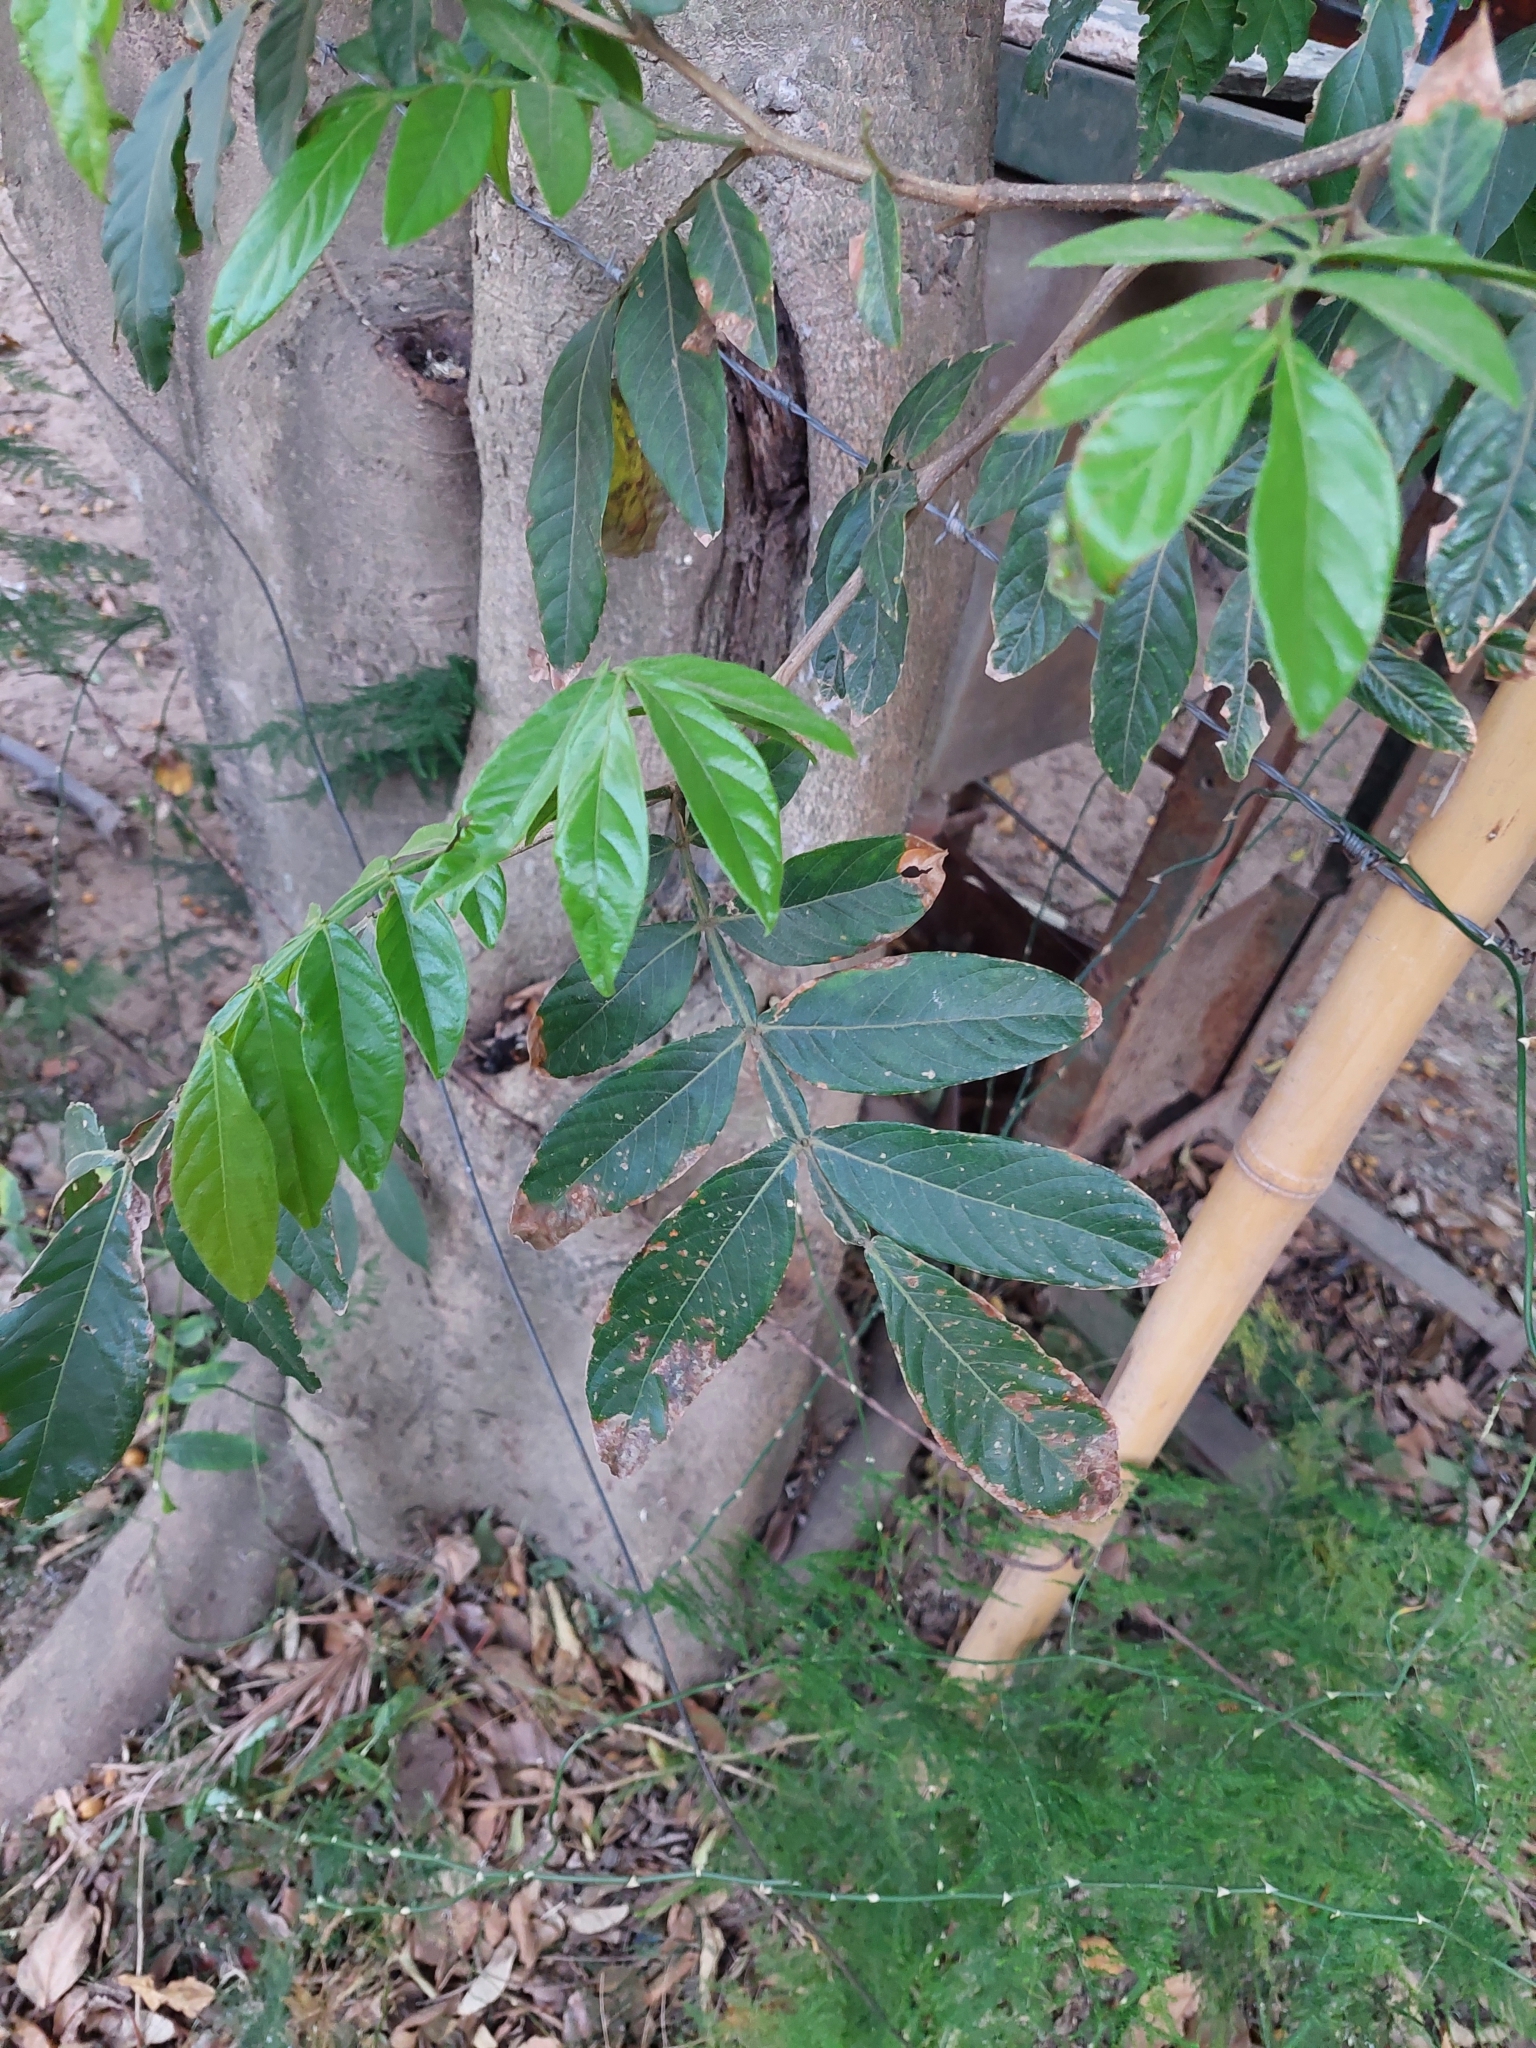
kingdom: Plantae
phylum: Tracheophyta
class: Magnoliopsida
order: Fabales
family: Fabaceae
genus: Inga
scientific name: Inga uraguensis
